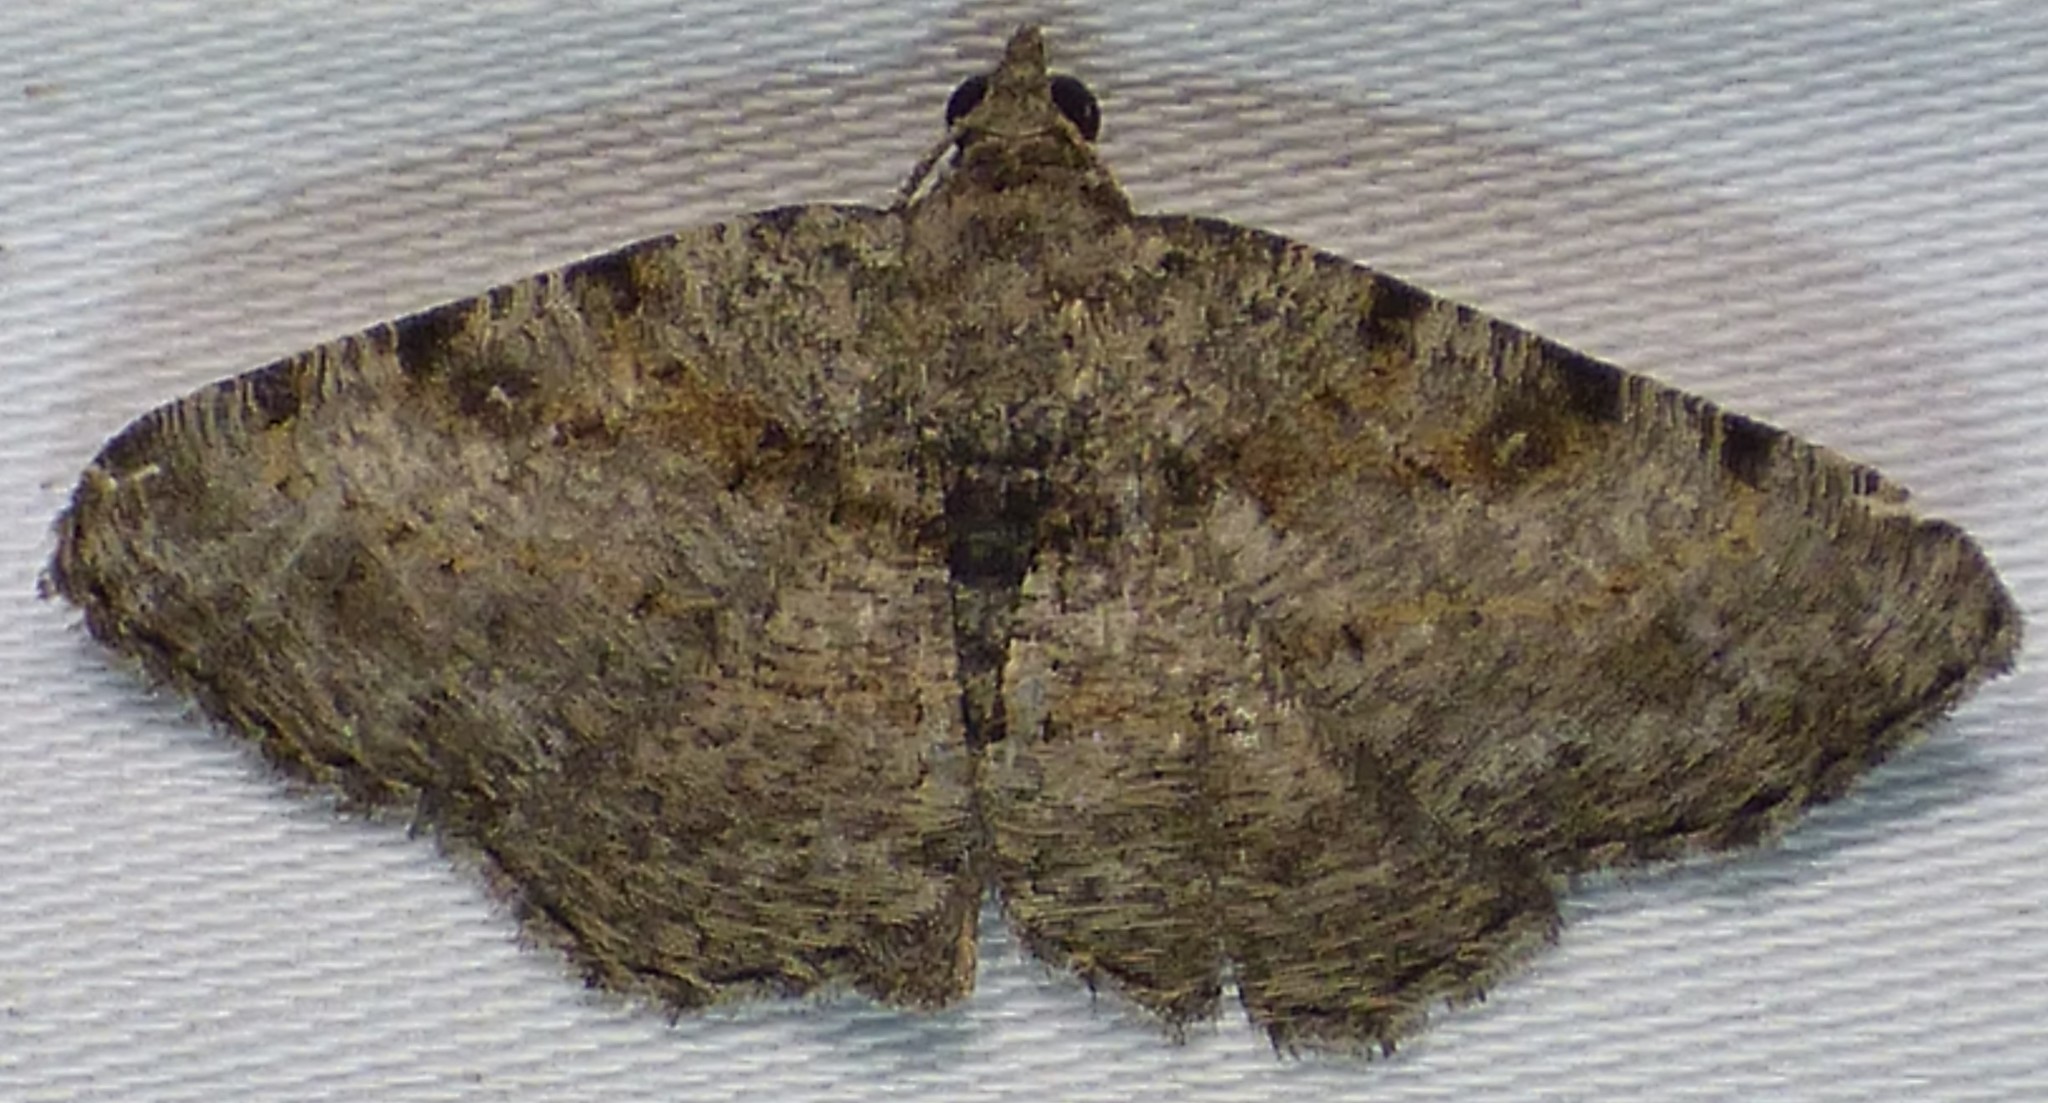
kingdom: Animalia
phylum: Arthropoda
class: Insecta
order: Lepidoptera
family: Geometridae
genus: Digrammia
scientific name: Digrammia gnophosaria
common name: Hollow-spotted angle
